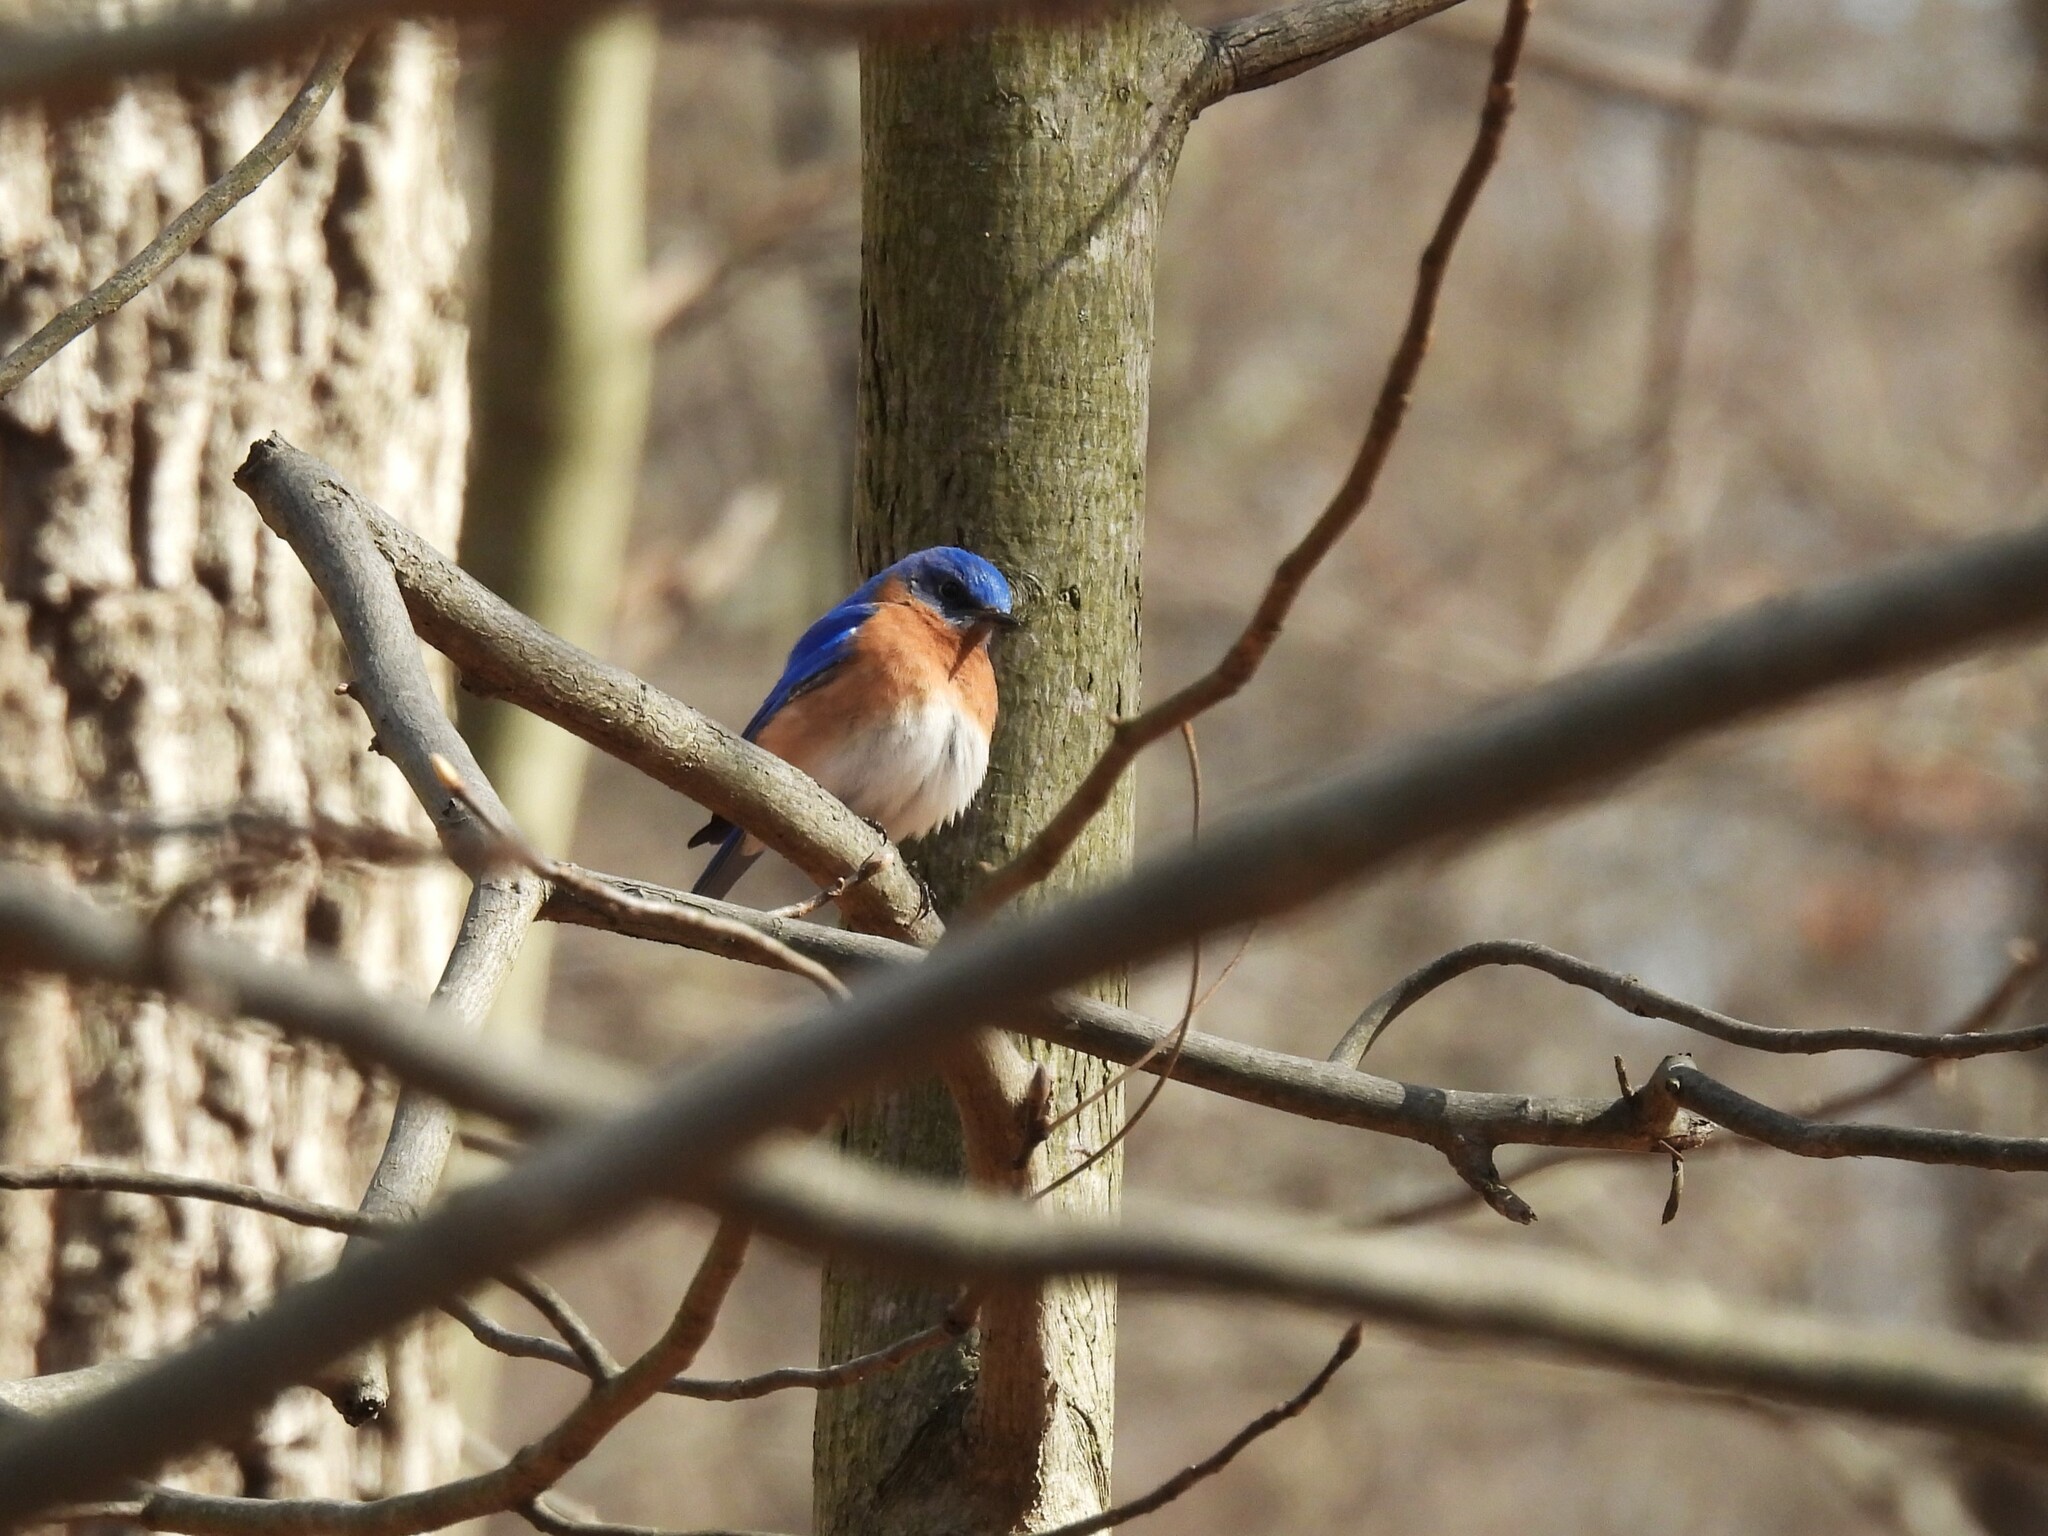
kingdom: Animalia
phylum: Chordata
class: Aves
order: Passeriformes
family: Turdidae
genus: Sialia
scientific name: Sialia sialis
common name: Eastern bluebird
